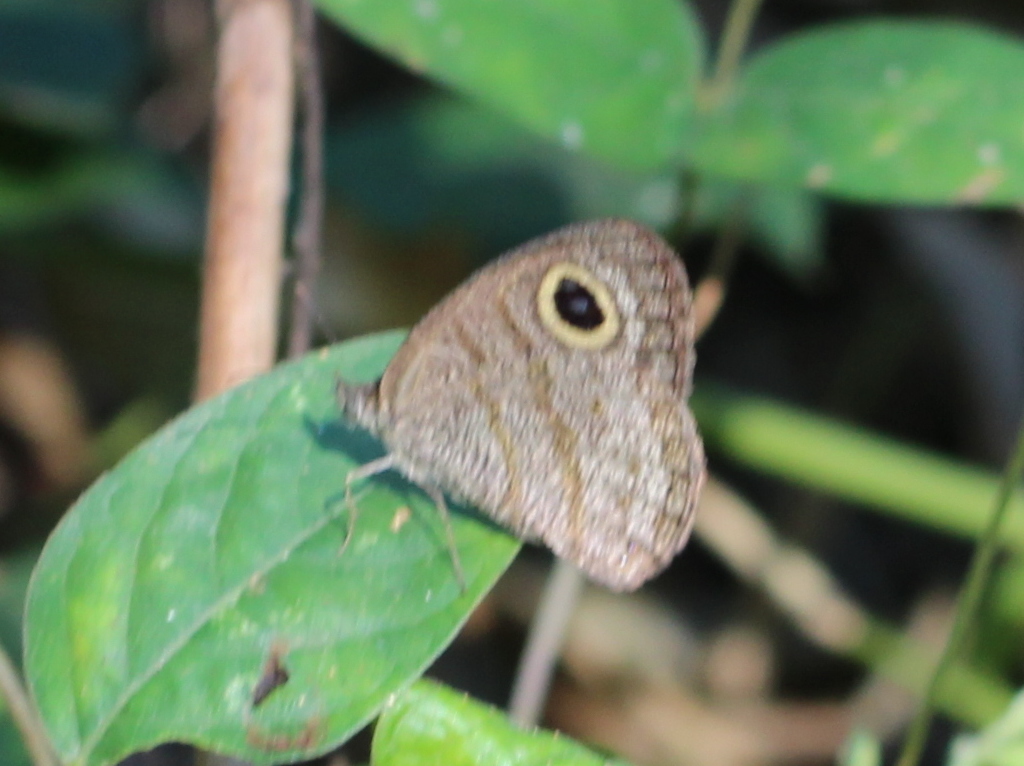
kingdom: Animalia
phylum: Arthropoda
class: Insecta
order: Lepidoptera
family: Nymphalidae
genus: Ypthima
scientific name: Ypthima baldus
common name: Common five-ring
